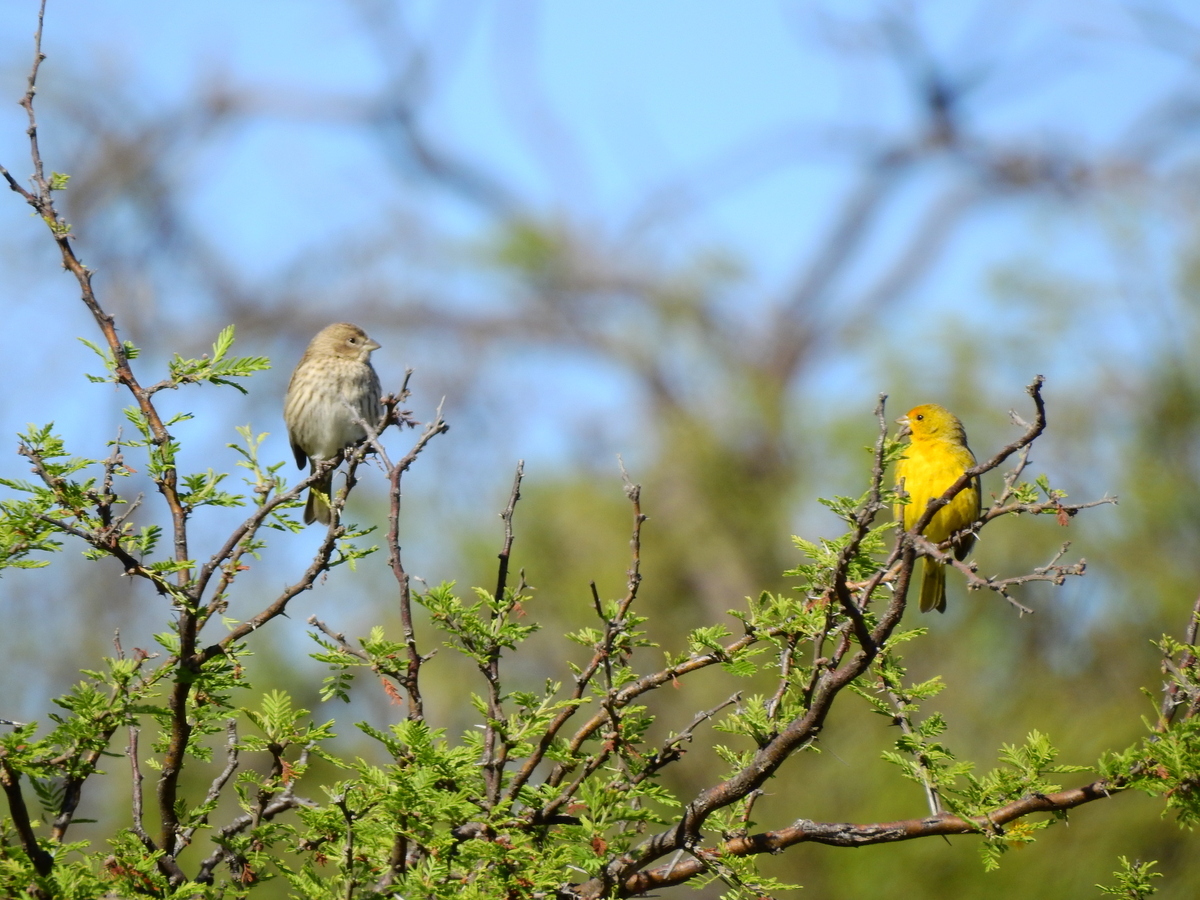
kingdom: Animalia
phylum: Chordata
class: Aves
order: Passeriformes
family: Thraupidae
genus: Sicalis
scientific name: Sicalis flaveola
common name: Saffron finch
